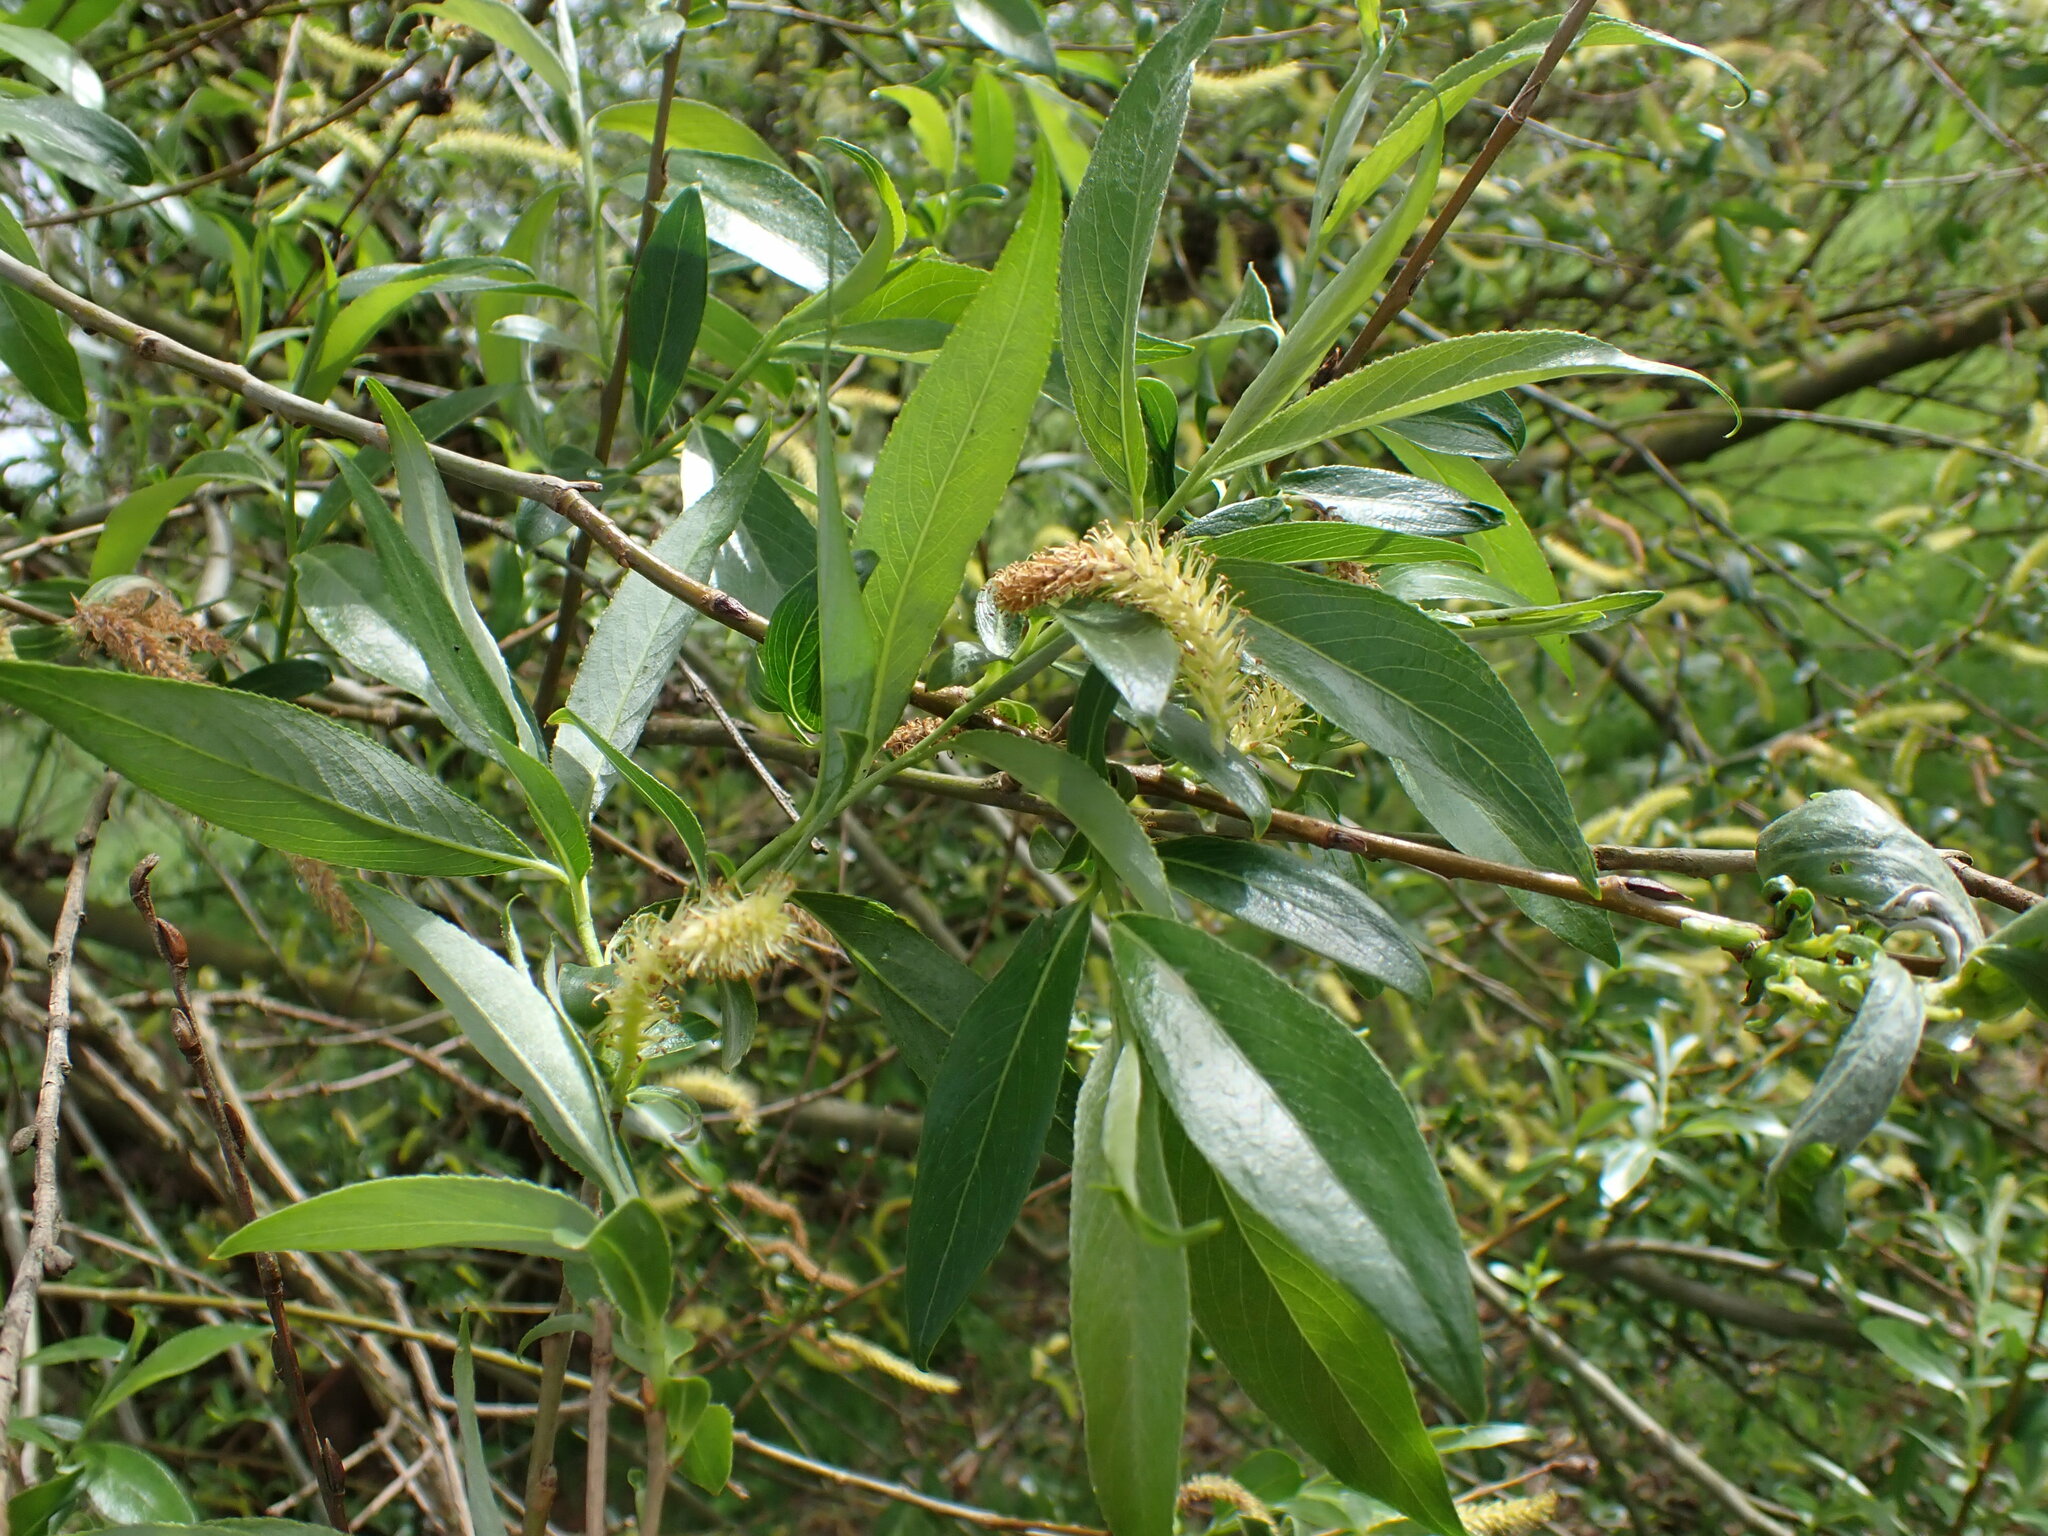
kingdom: Plantae
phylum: Tracheophyta
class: Magnoliopsida
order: Malpighiales
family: Salicaceae
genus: Salix
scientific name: Salix alba
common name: White willow
